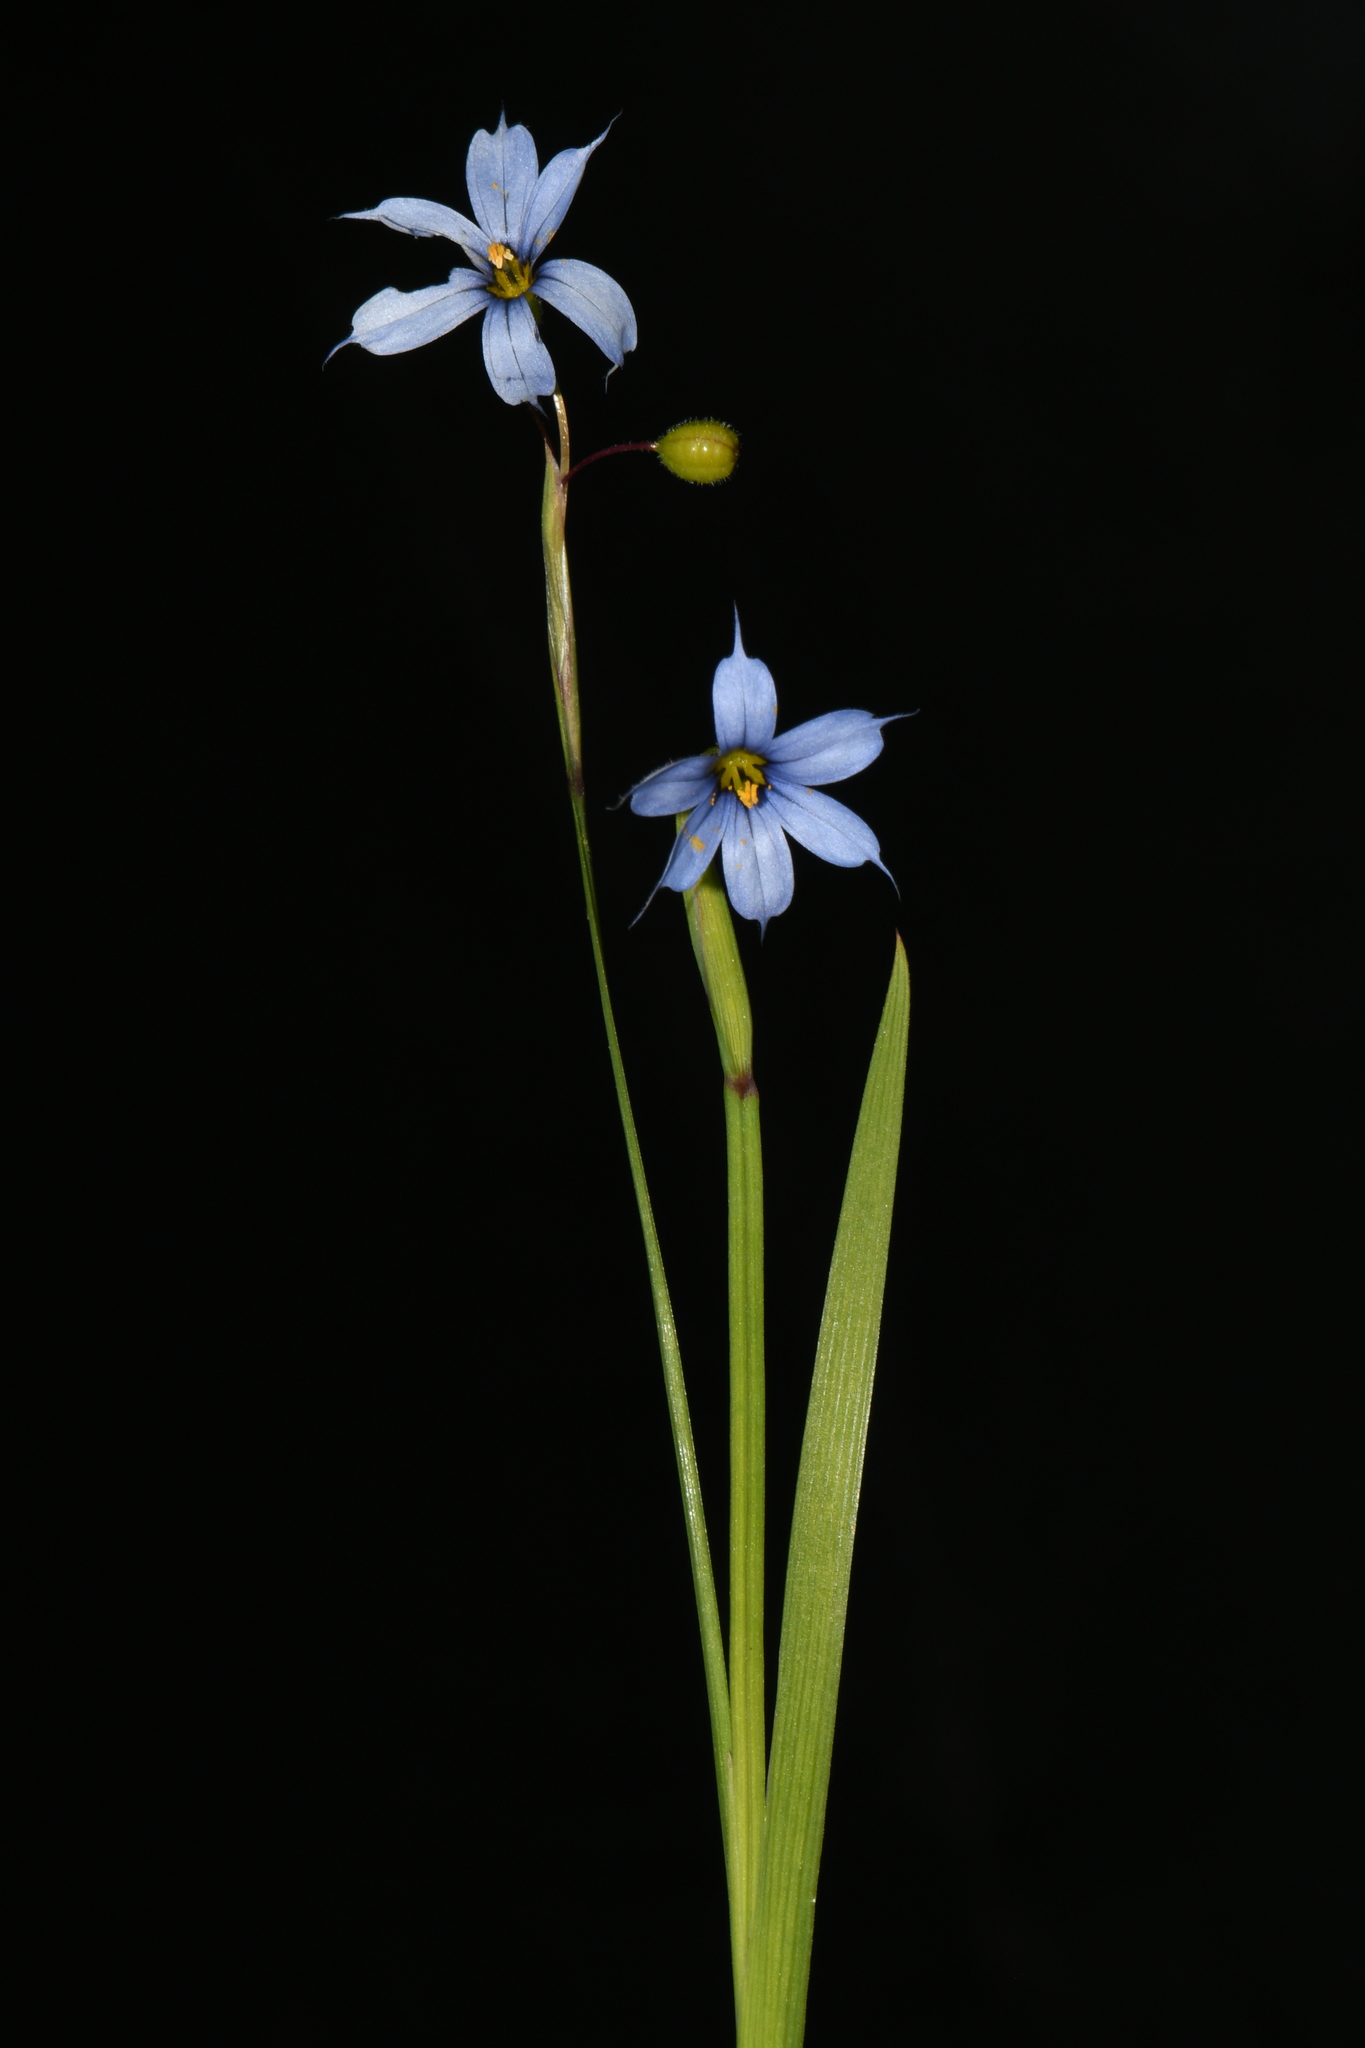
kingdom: Plantae
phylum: Tracheophyta
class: Liliopsida
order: Asparagales
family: Iridaceae
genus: Sisyrinchium
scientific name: Sisyrinchium angustifolium
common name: Narrow-leaf blue-eyed-grass
